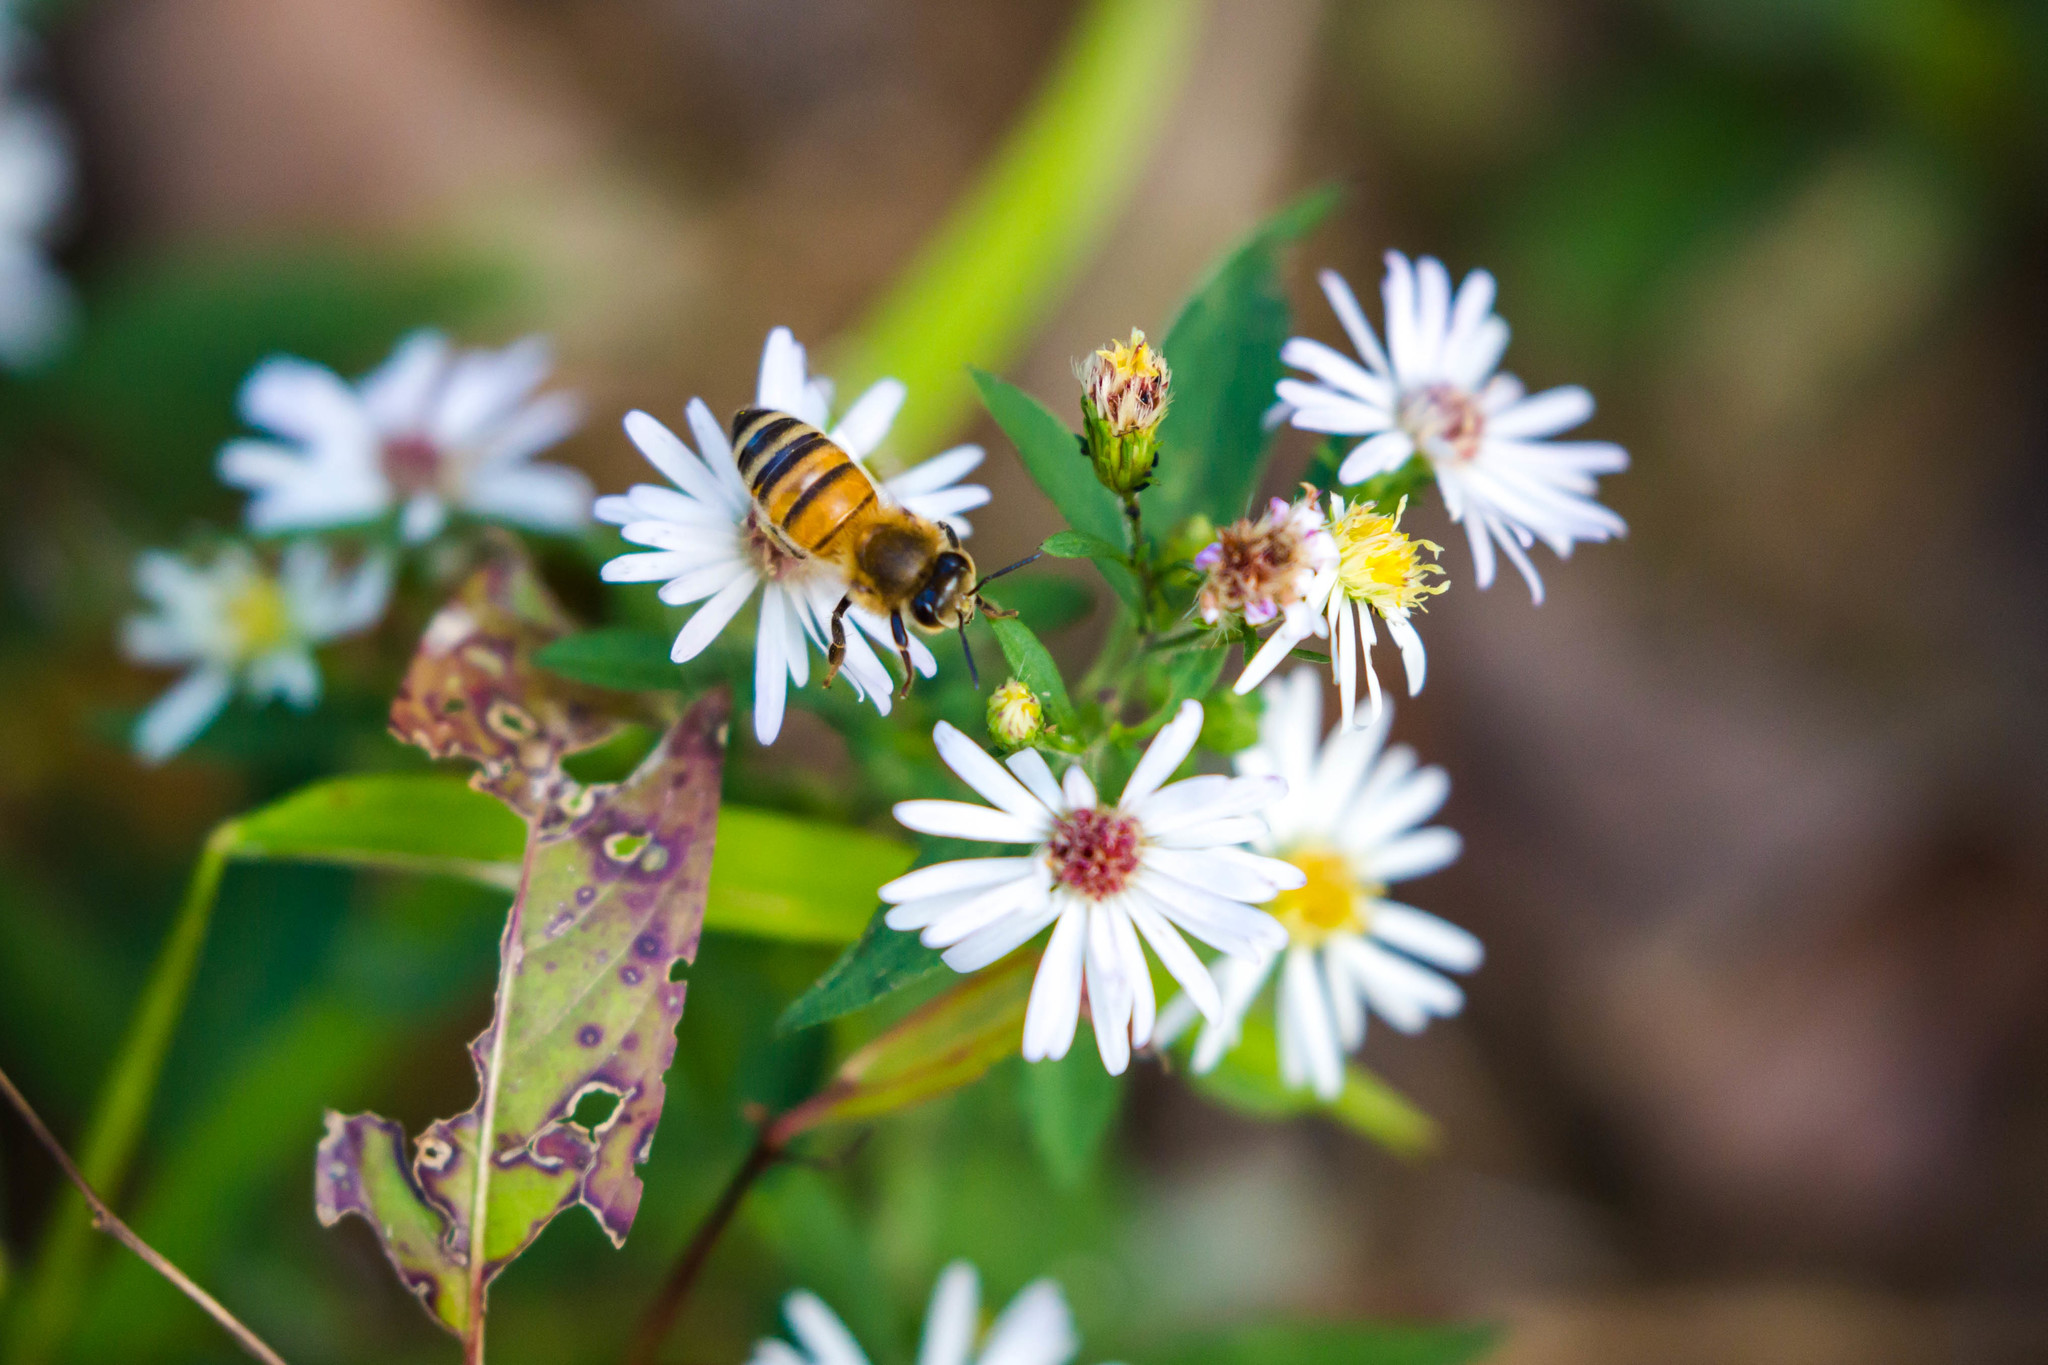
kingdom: Animalia
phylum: Arthropoda
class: Insecta
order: Hymenoptera
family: Apidae
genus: Apis
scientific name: Apis mellifera
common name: Honey bee
